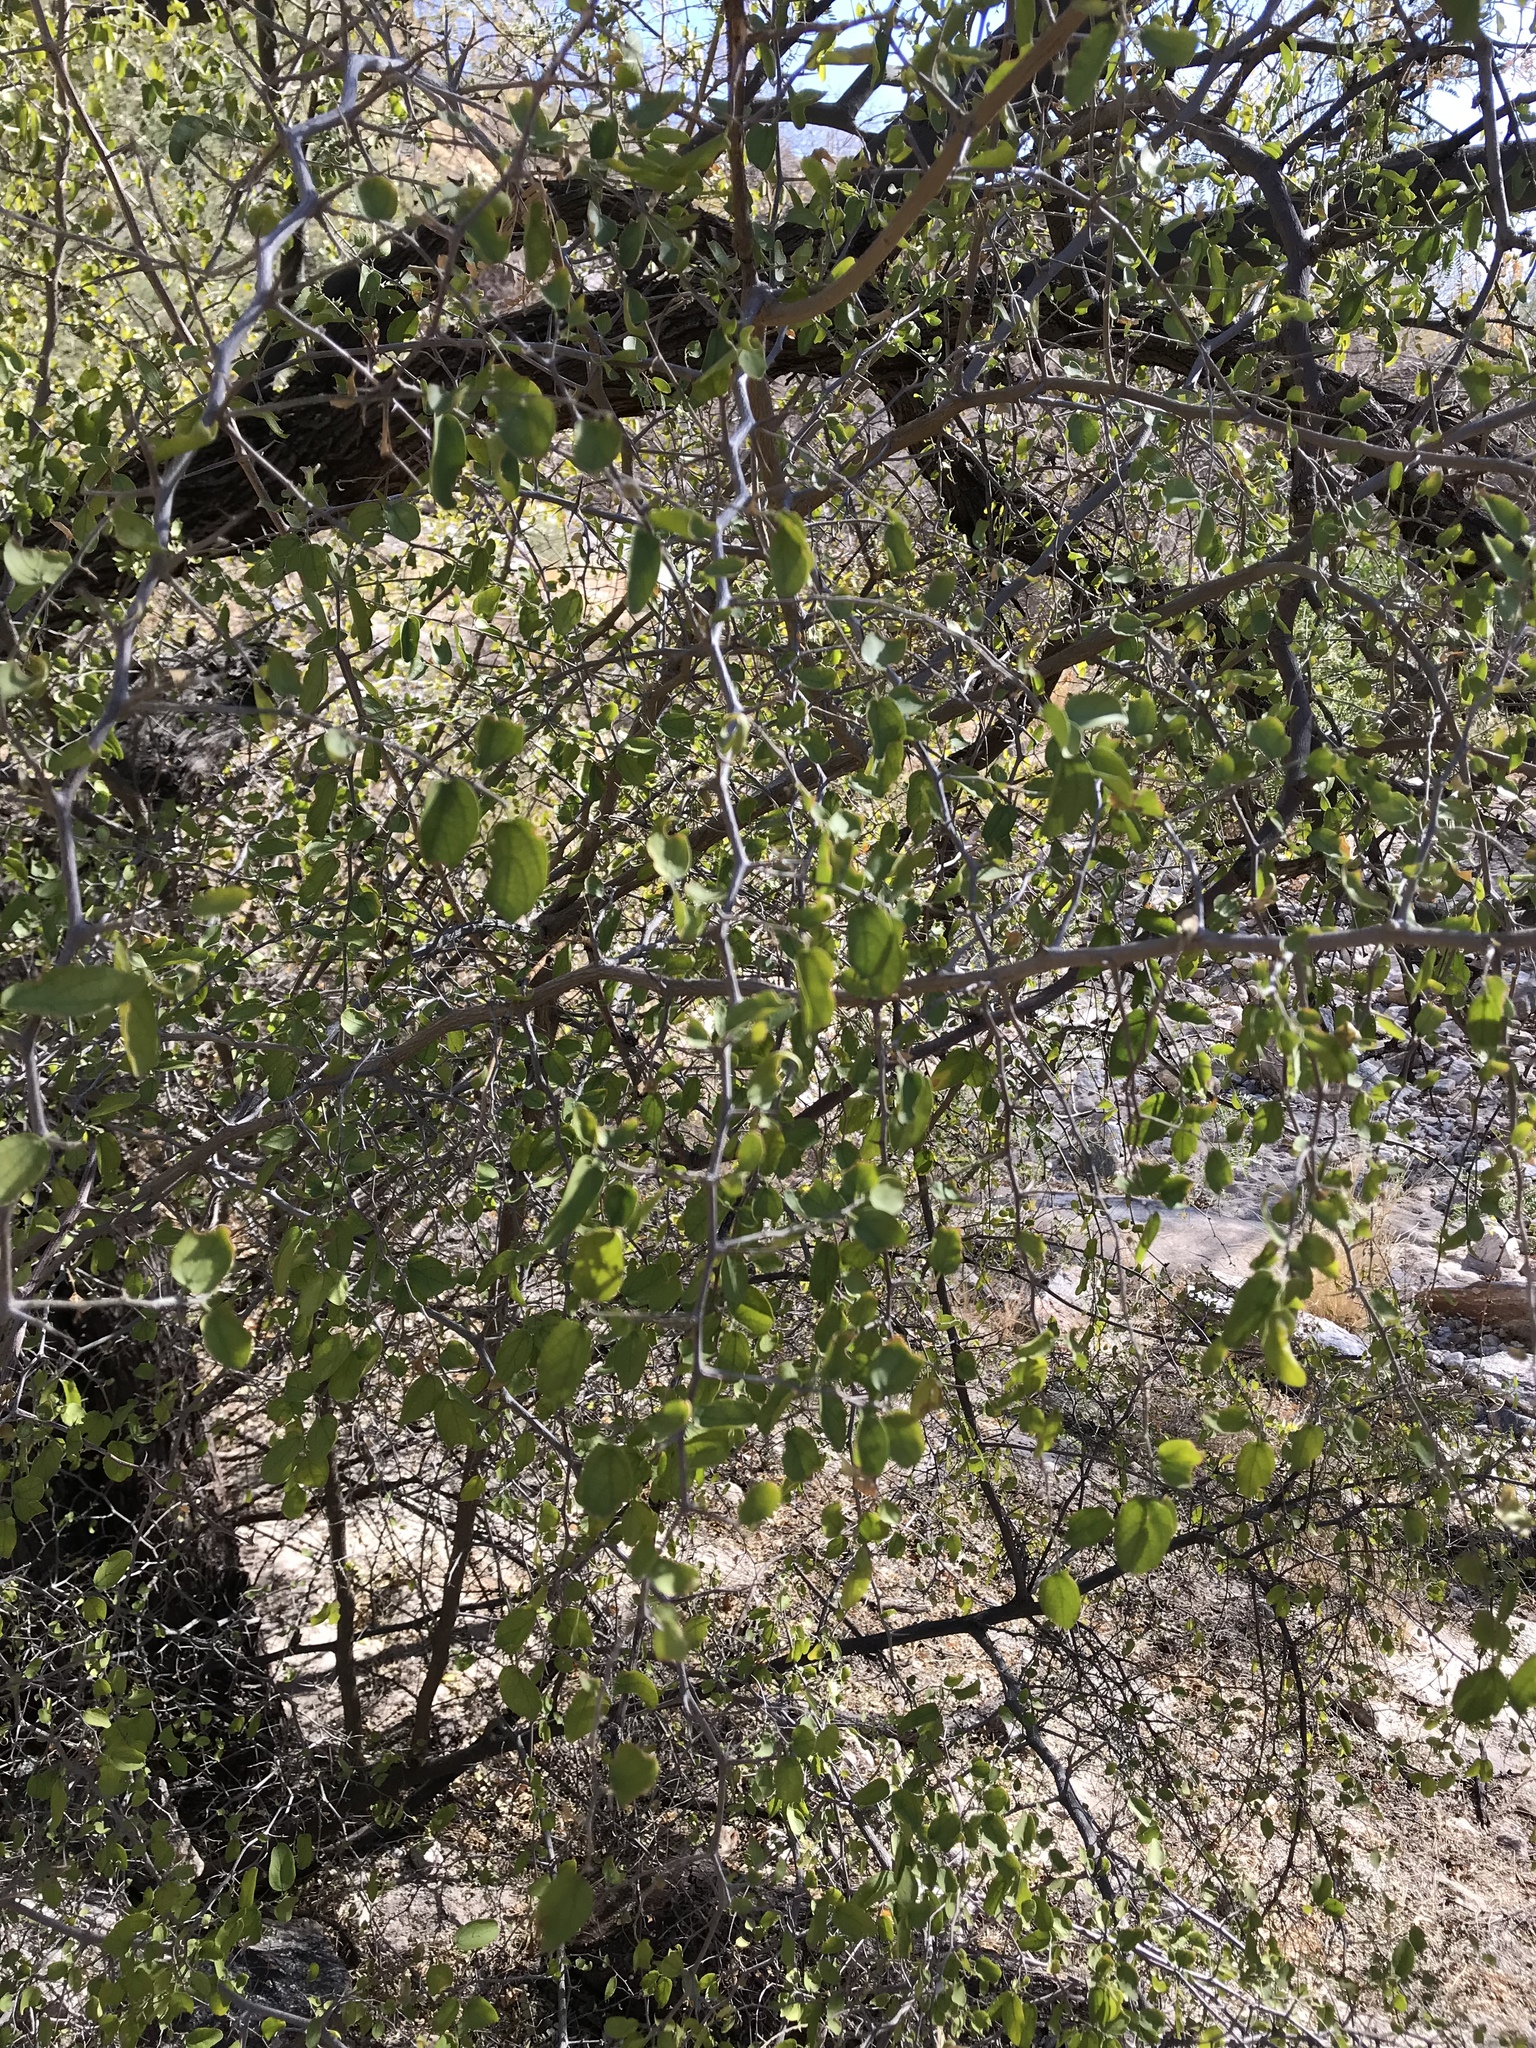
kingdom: Plantae
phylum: Tracheophyta
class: Magnoliopsida
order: Rosales
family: Cannabaceae
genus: Celtis
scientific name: Celtis pallida
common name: Desert hackberry
